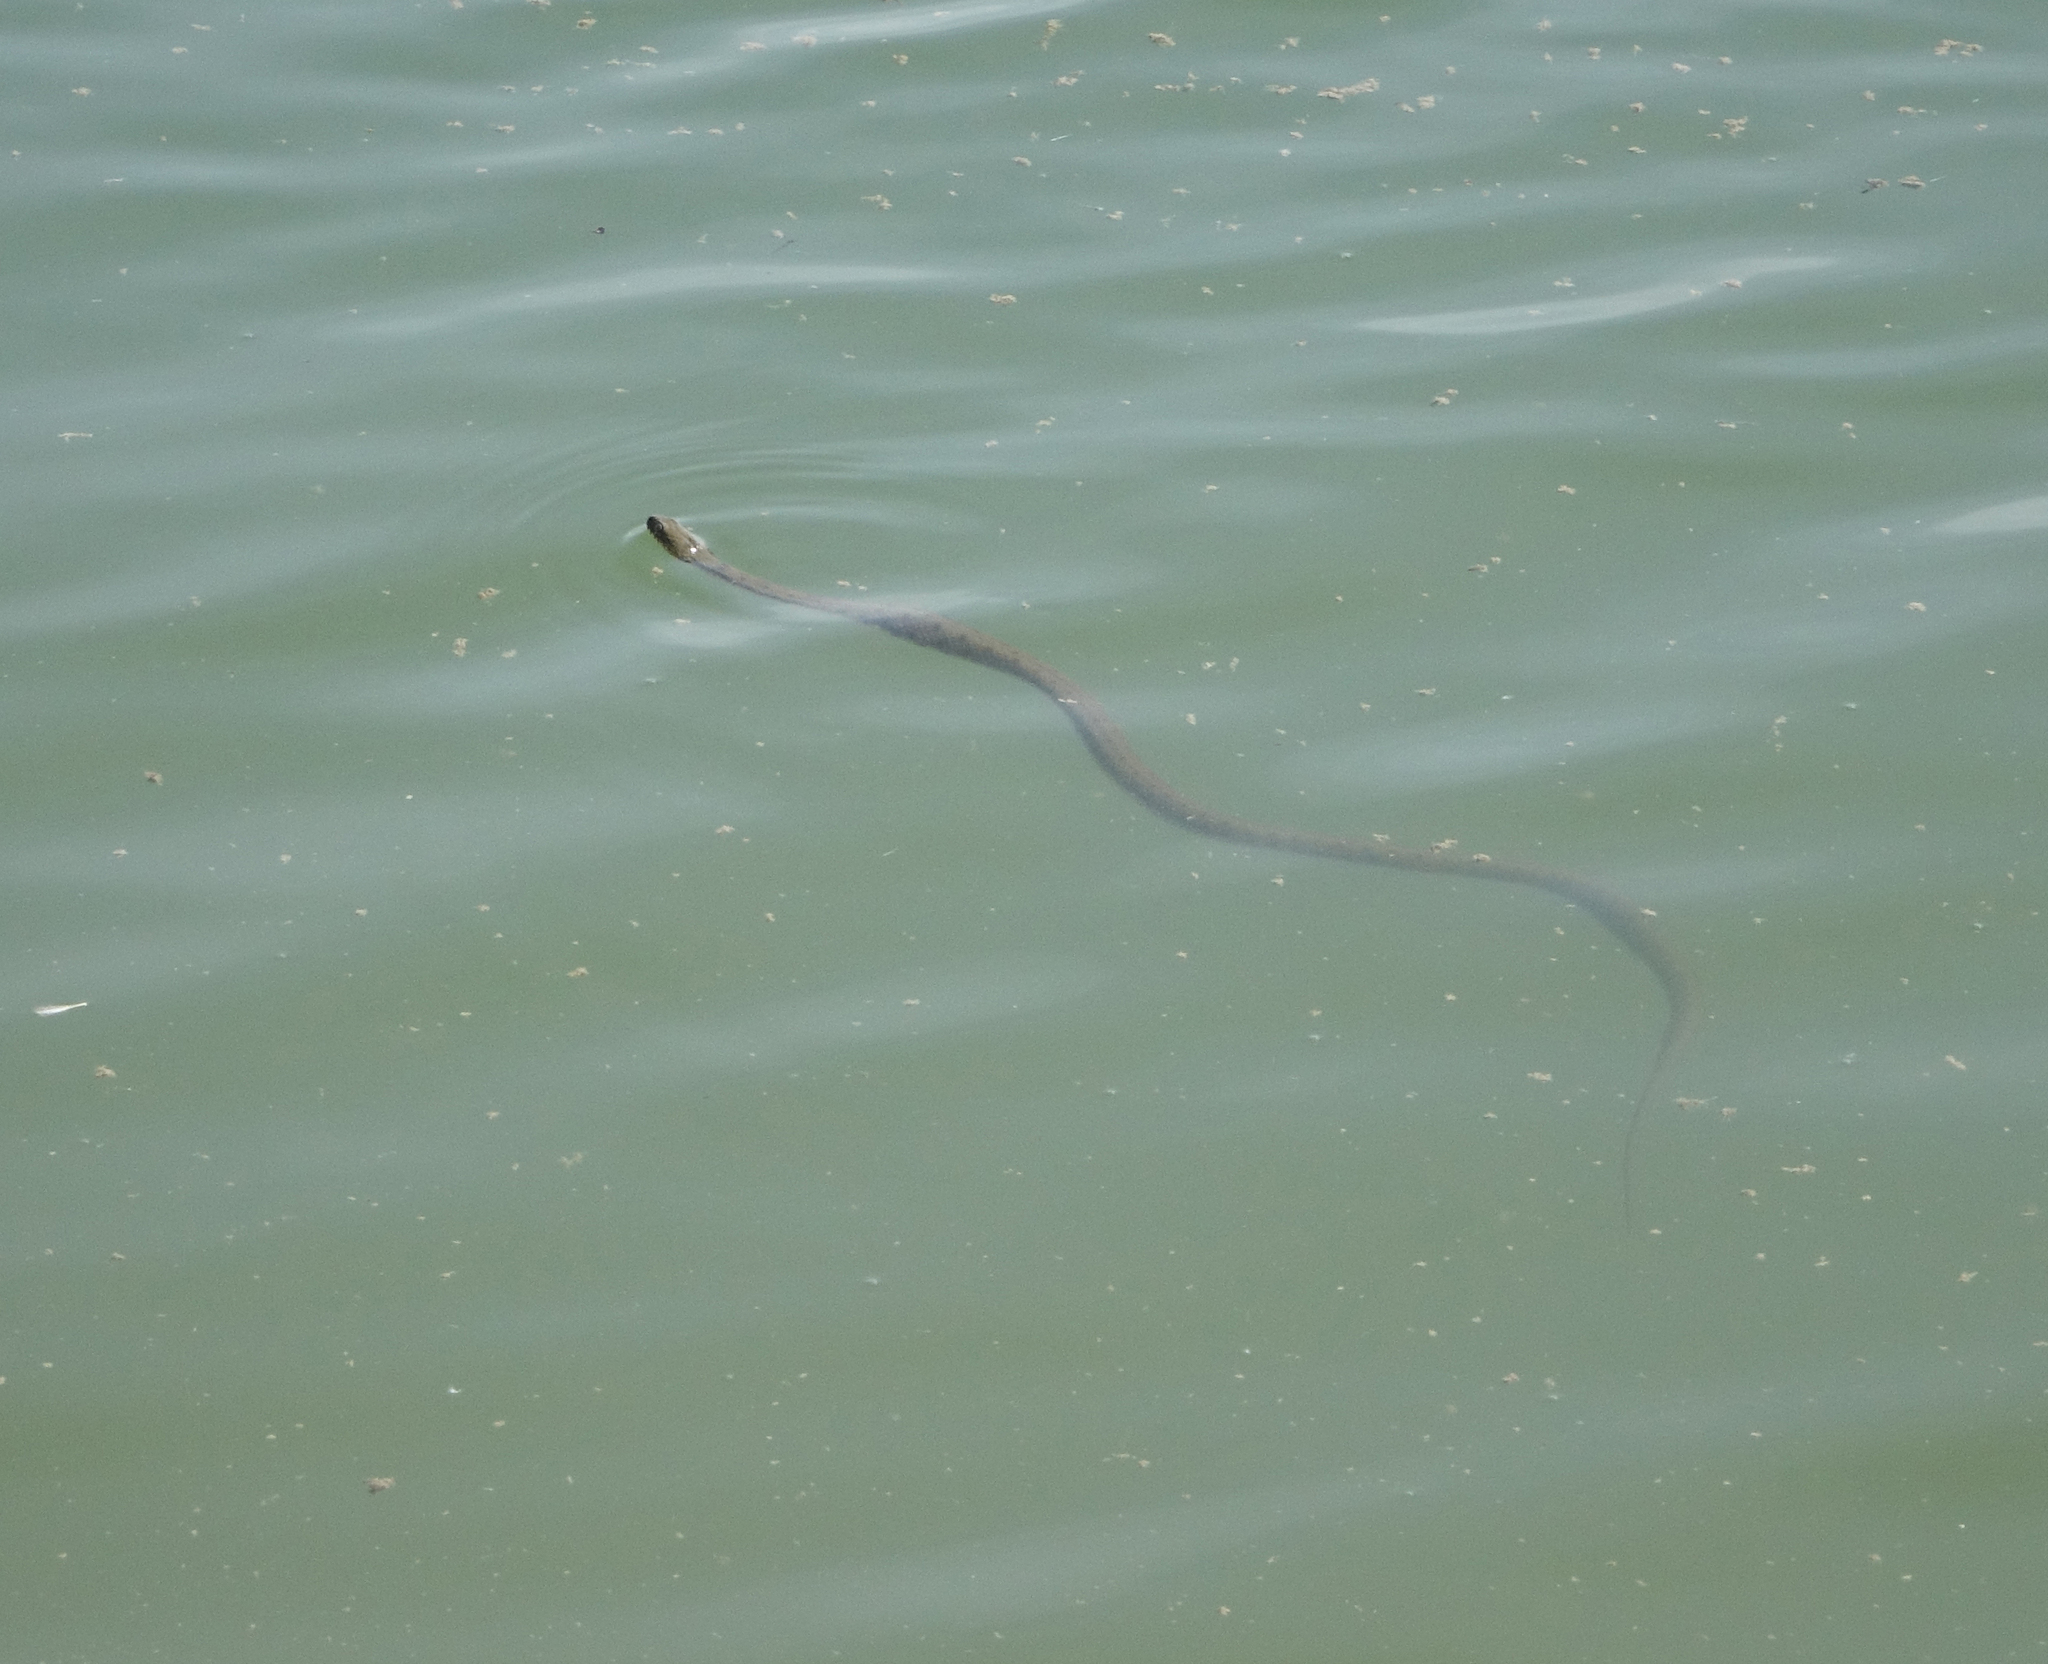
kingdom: Animalia
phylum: Chordata
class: Squamata
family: Colubridae
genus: Natrix
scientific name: Natrix tessellata
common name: Dice snake
